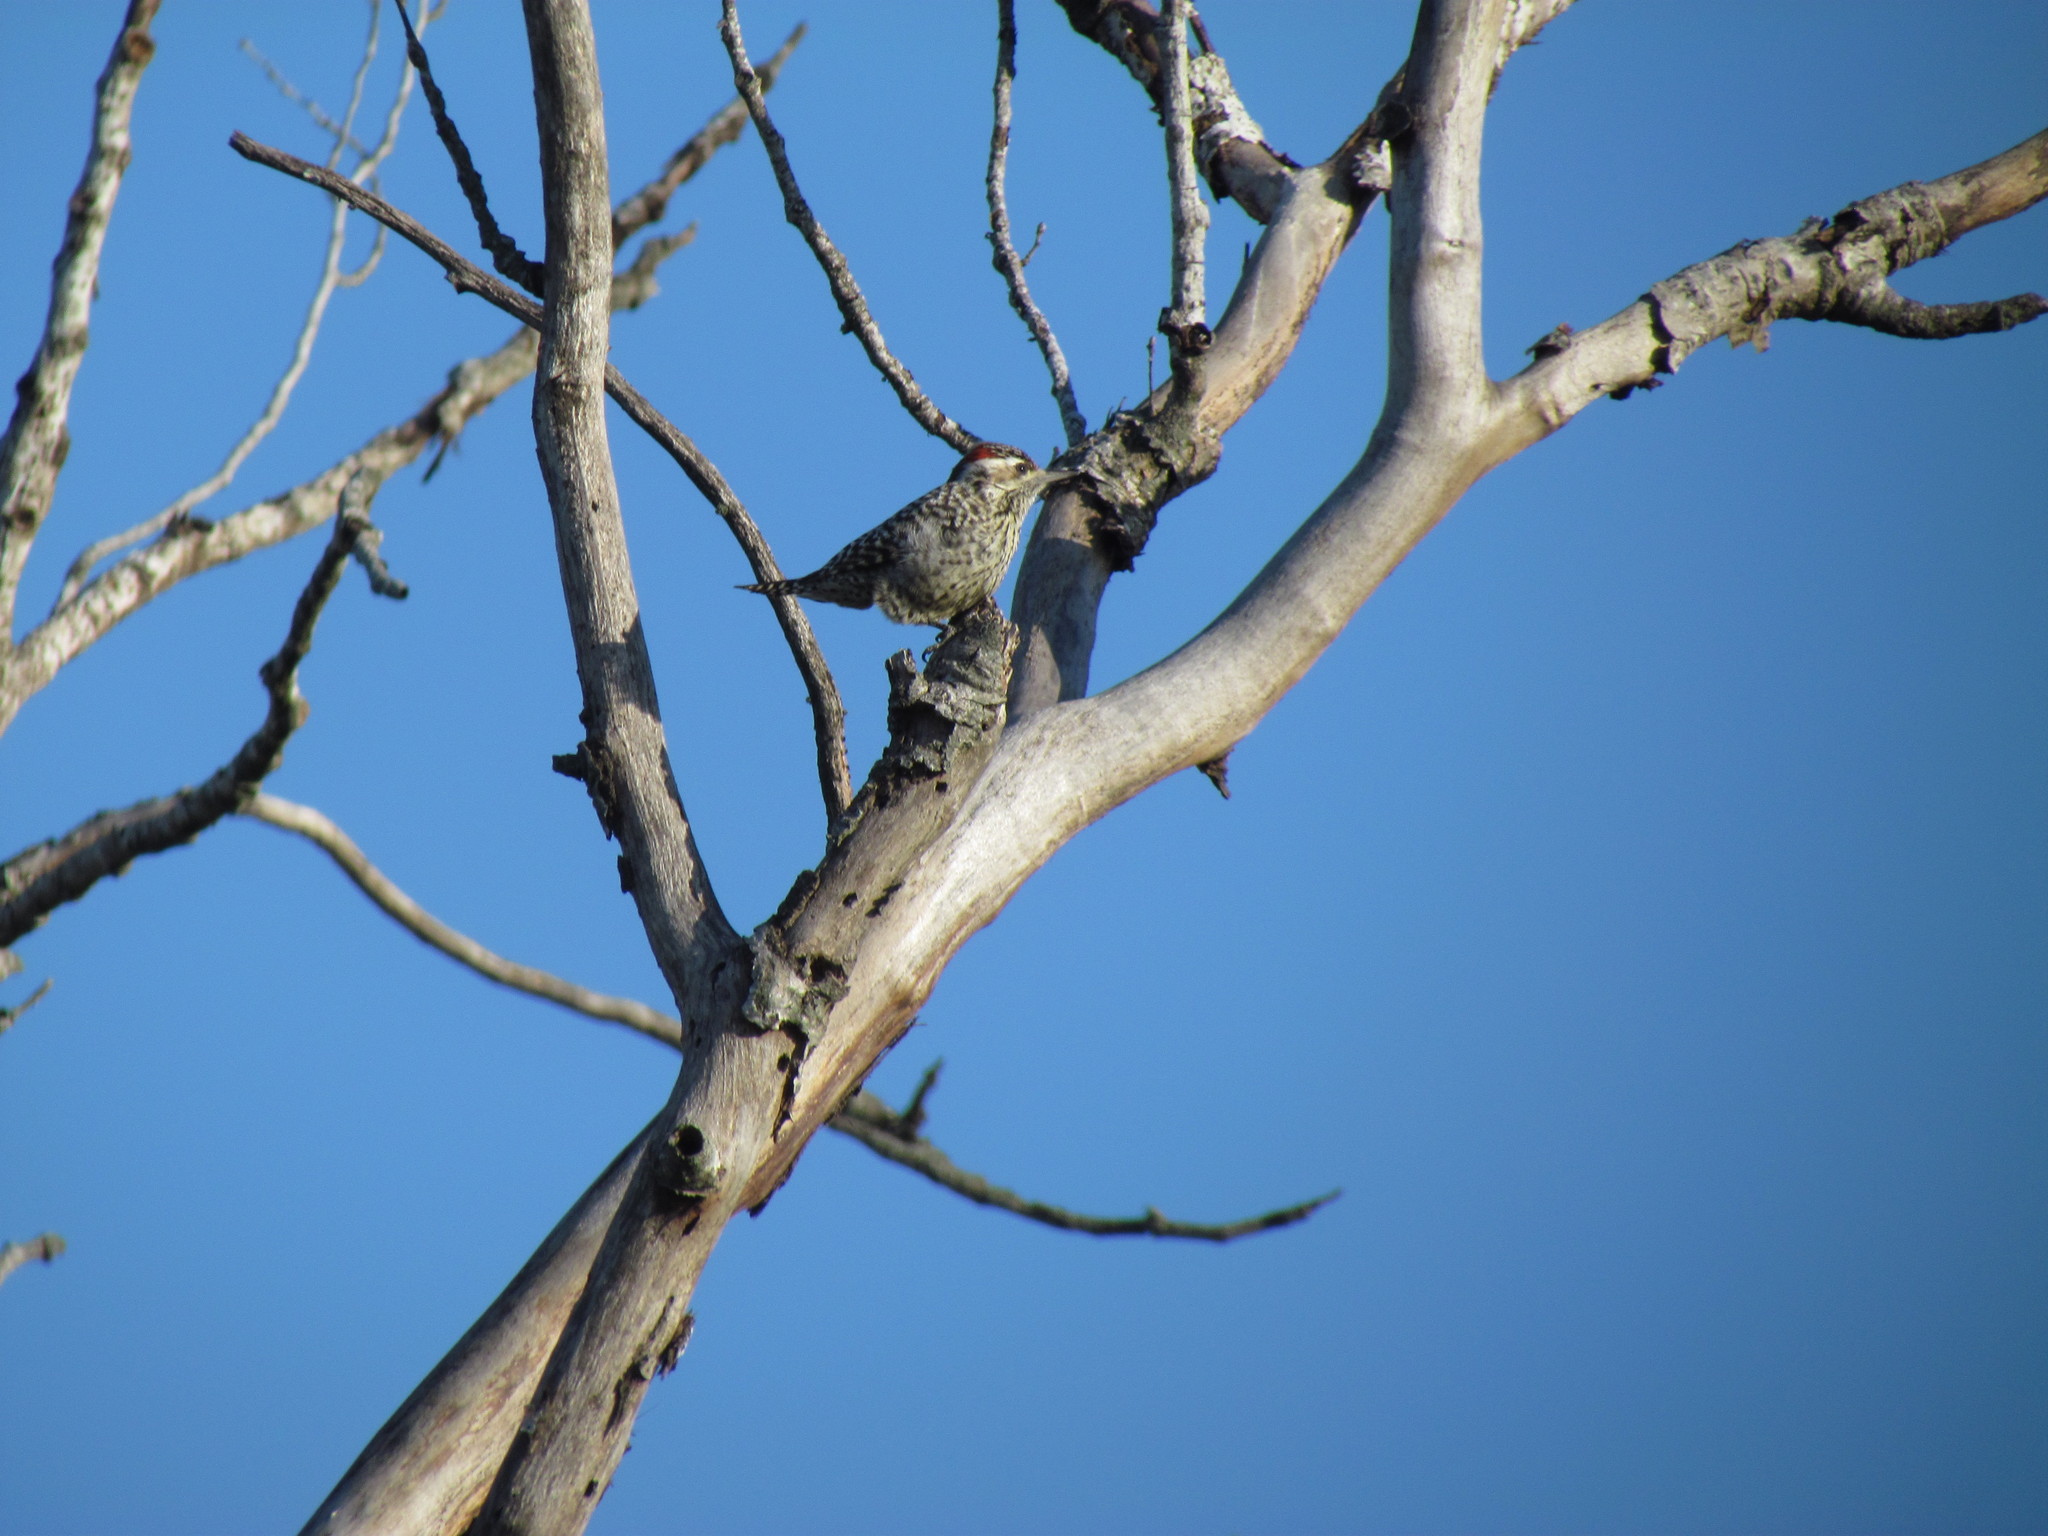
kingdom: Animalia
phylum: Chordata
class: Aves
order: Piciformes
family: Picidae
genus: Veniliornis
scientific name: Veniliornis mixtus
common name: Checkered woodpecker
